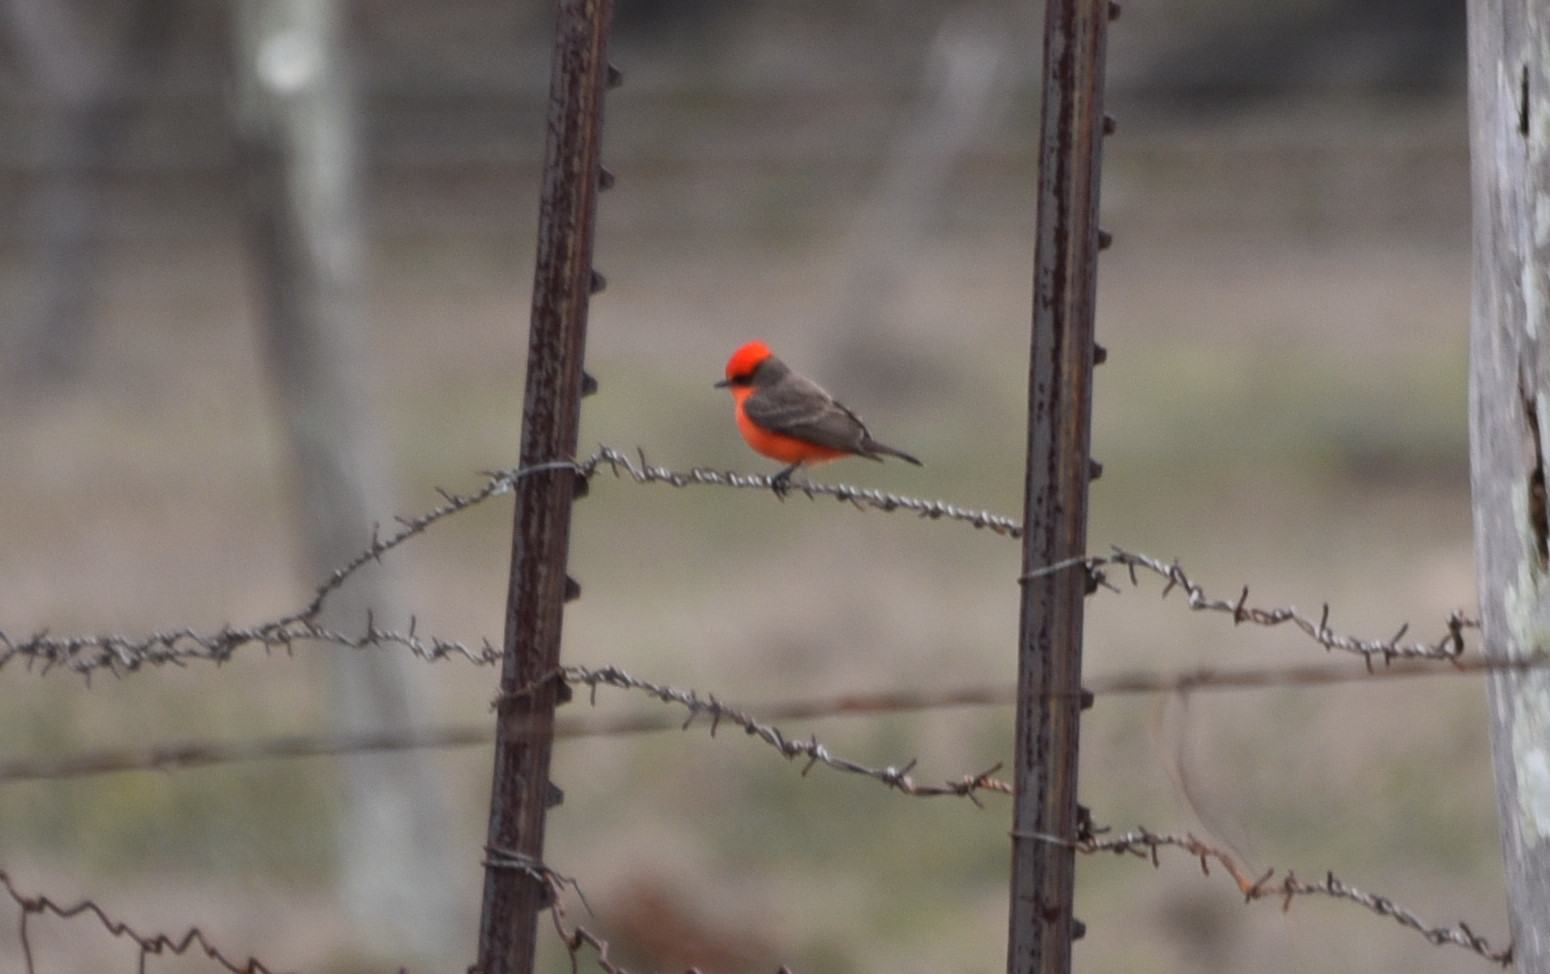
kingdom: Animalia
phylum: Chordata
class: Aves
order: Passeriformes
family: Tyrannidae
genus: Pyrocephalus
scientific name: Pyrocephalus rubinus
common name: Vermilion flycatcher
